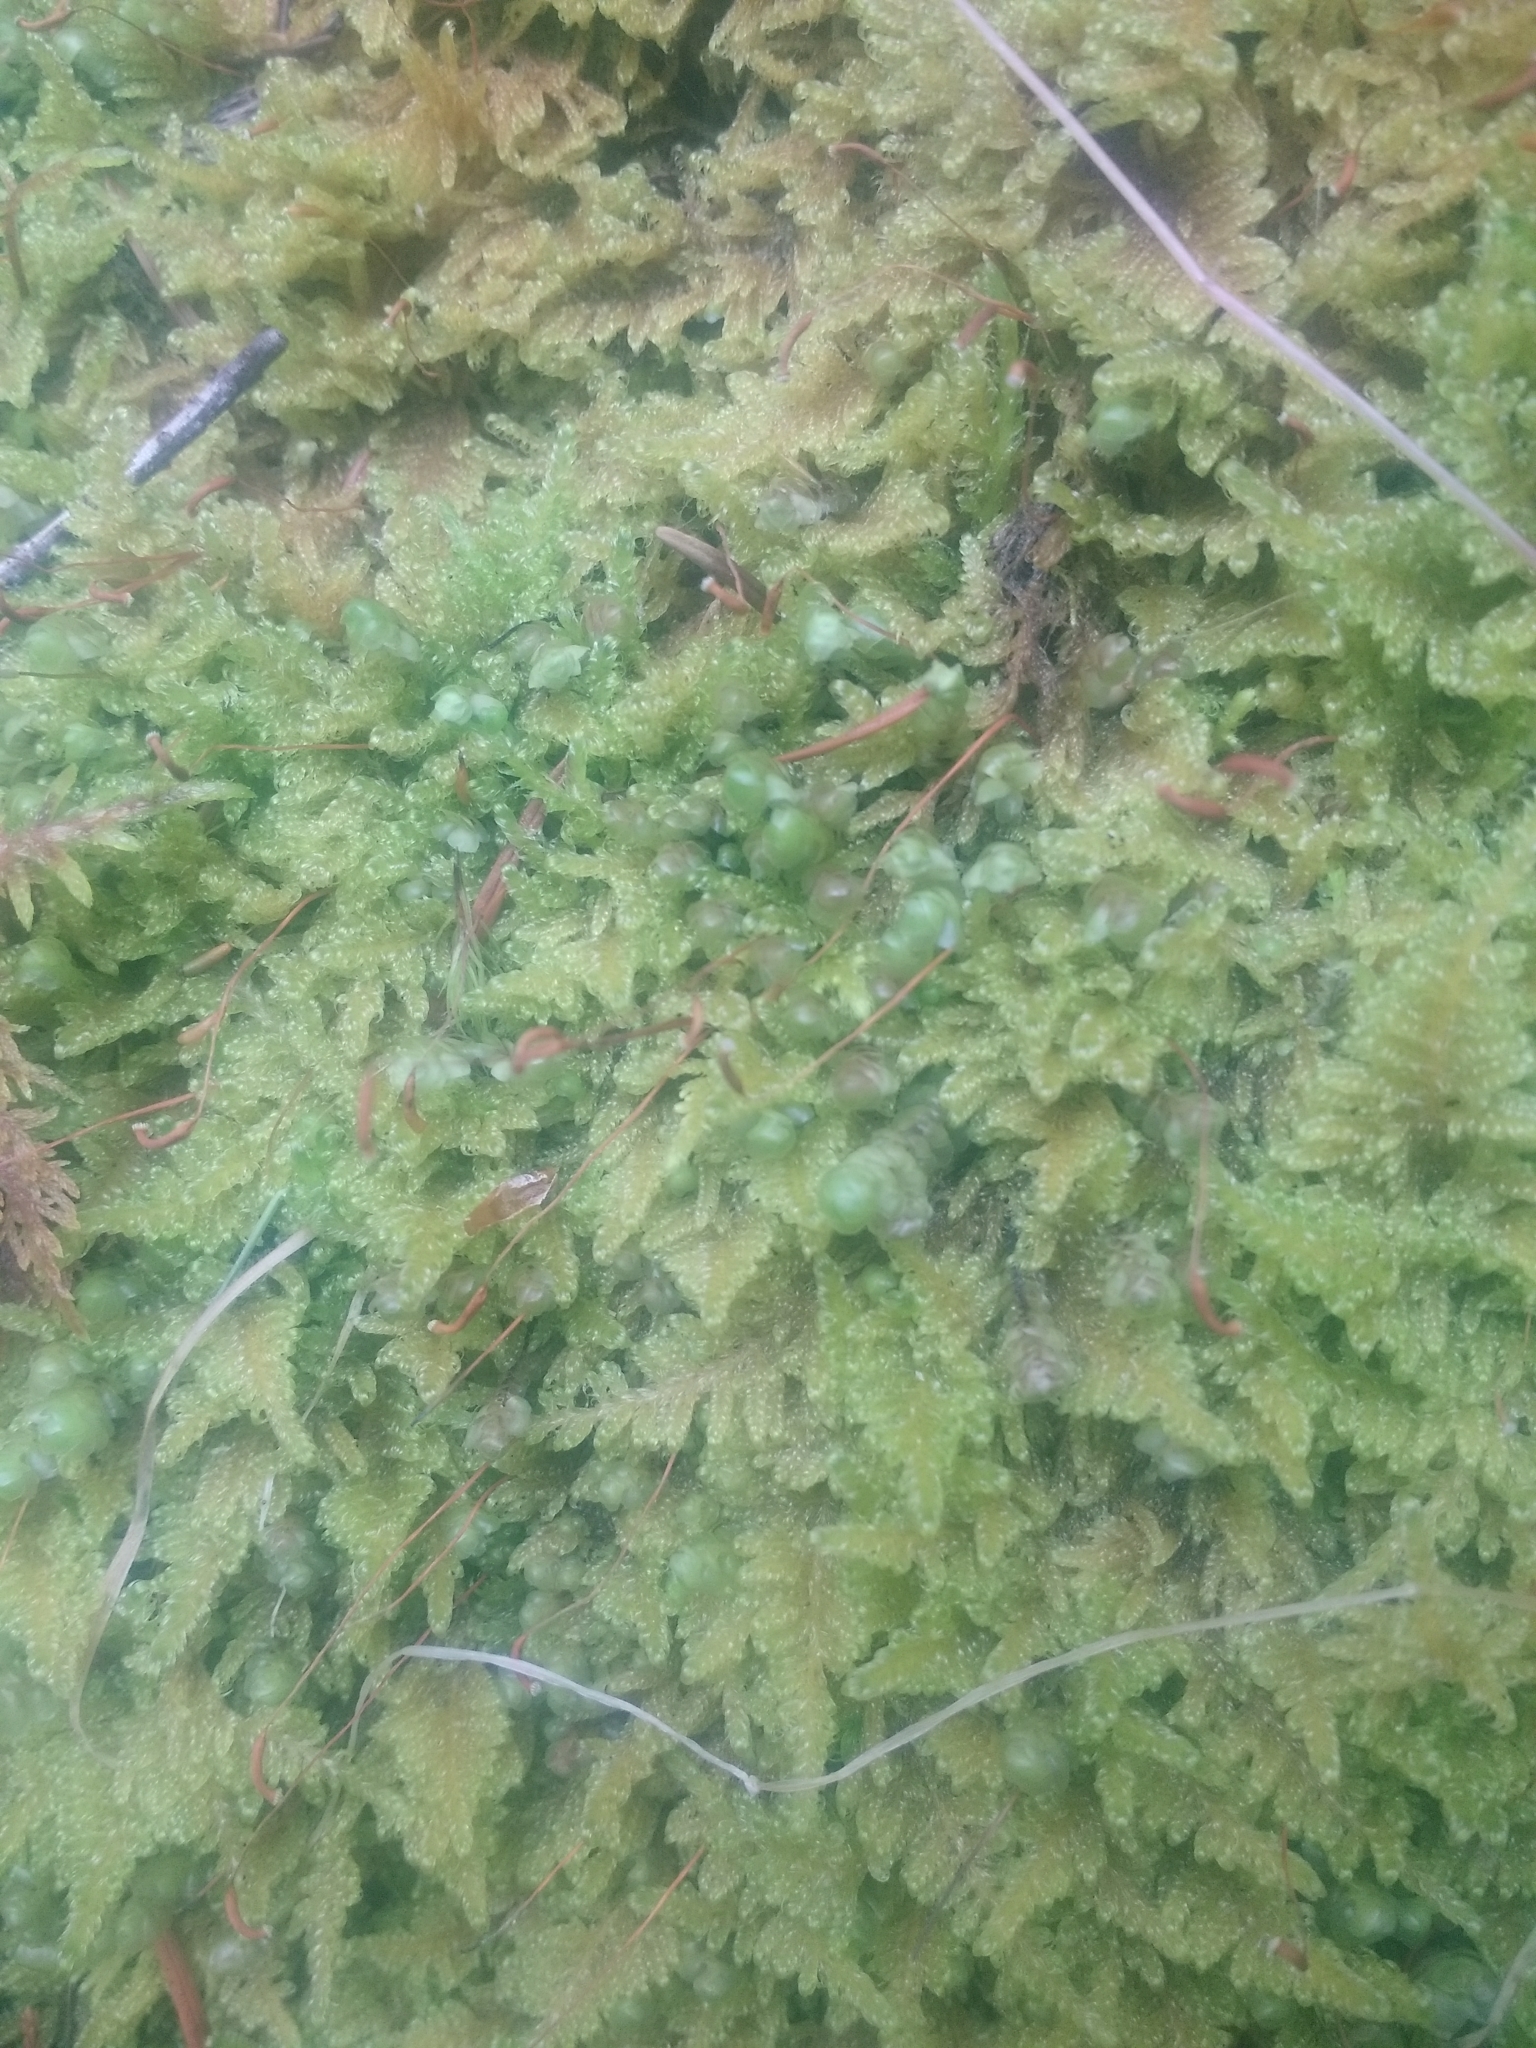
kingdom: Plantae
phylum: Bryophyta
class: Bryopsida
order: Hypnales
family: Stereodontaceae
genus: Stereodon
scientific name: Stereodon subimponens
